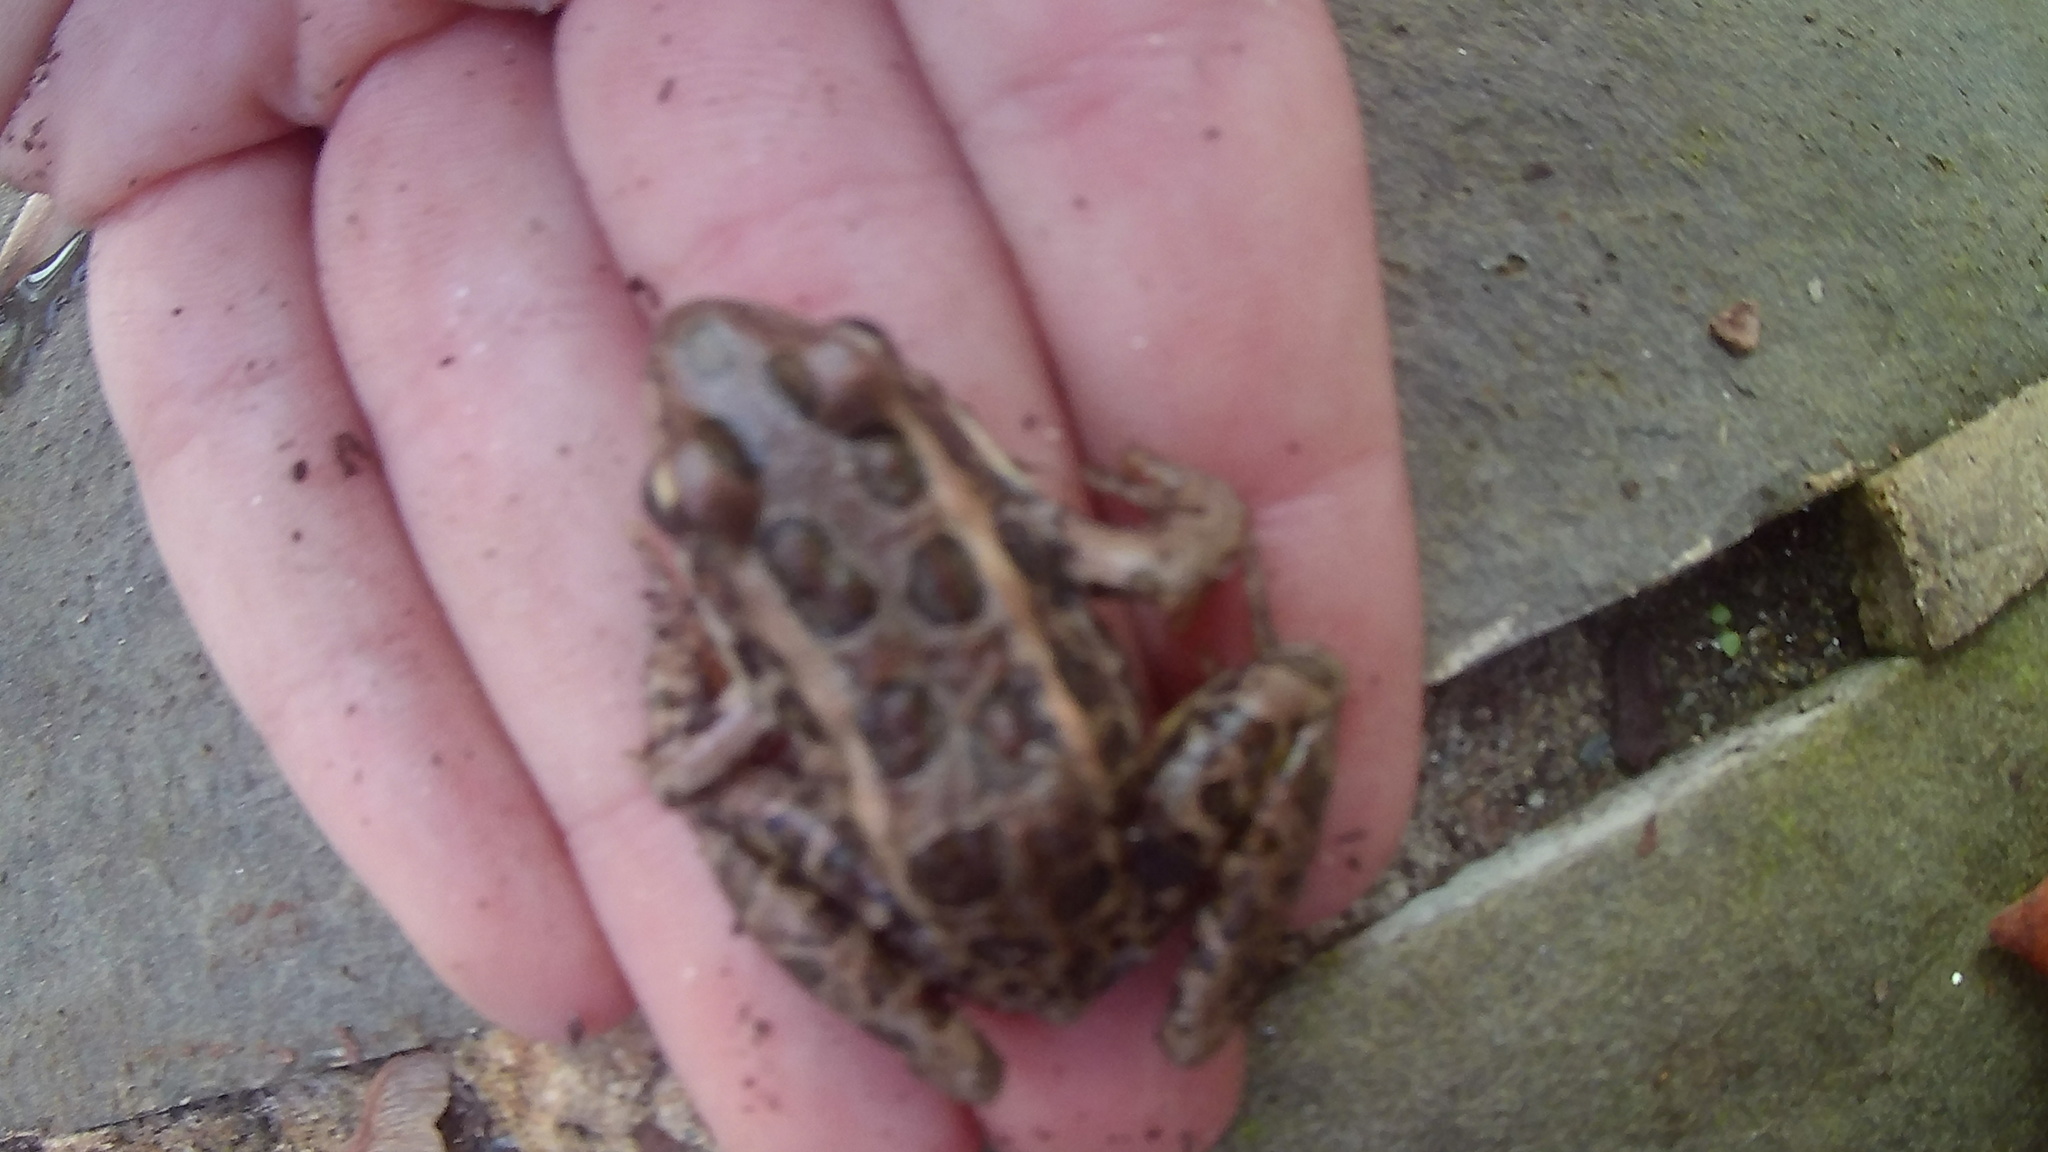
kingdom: Animalia
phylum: Chordata
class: Amphibia
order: Anura
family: Ranidae
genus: Lithobates
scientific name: Lithobates palustris
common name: Pickerel frog
